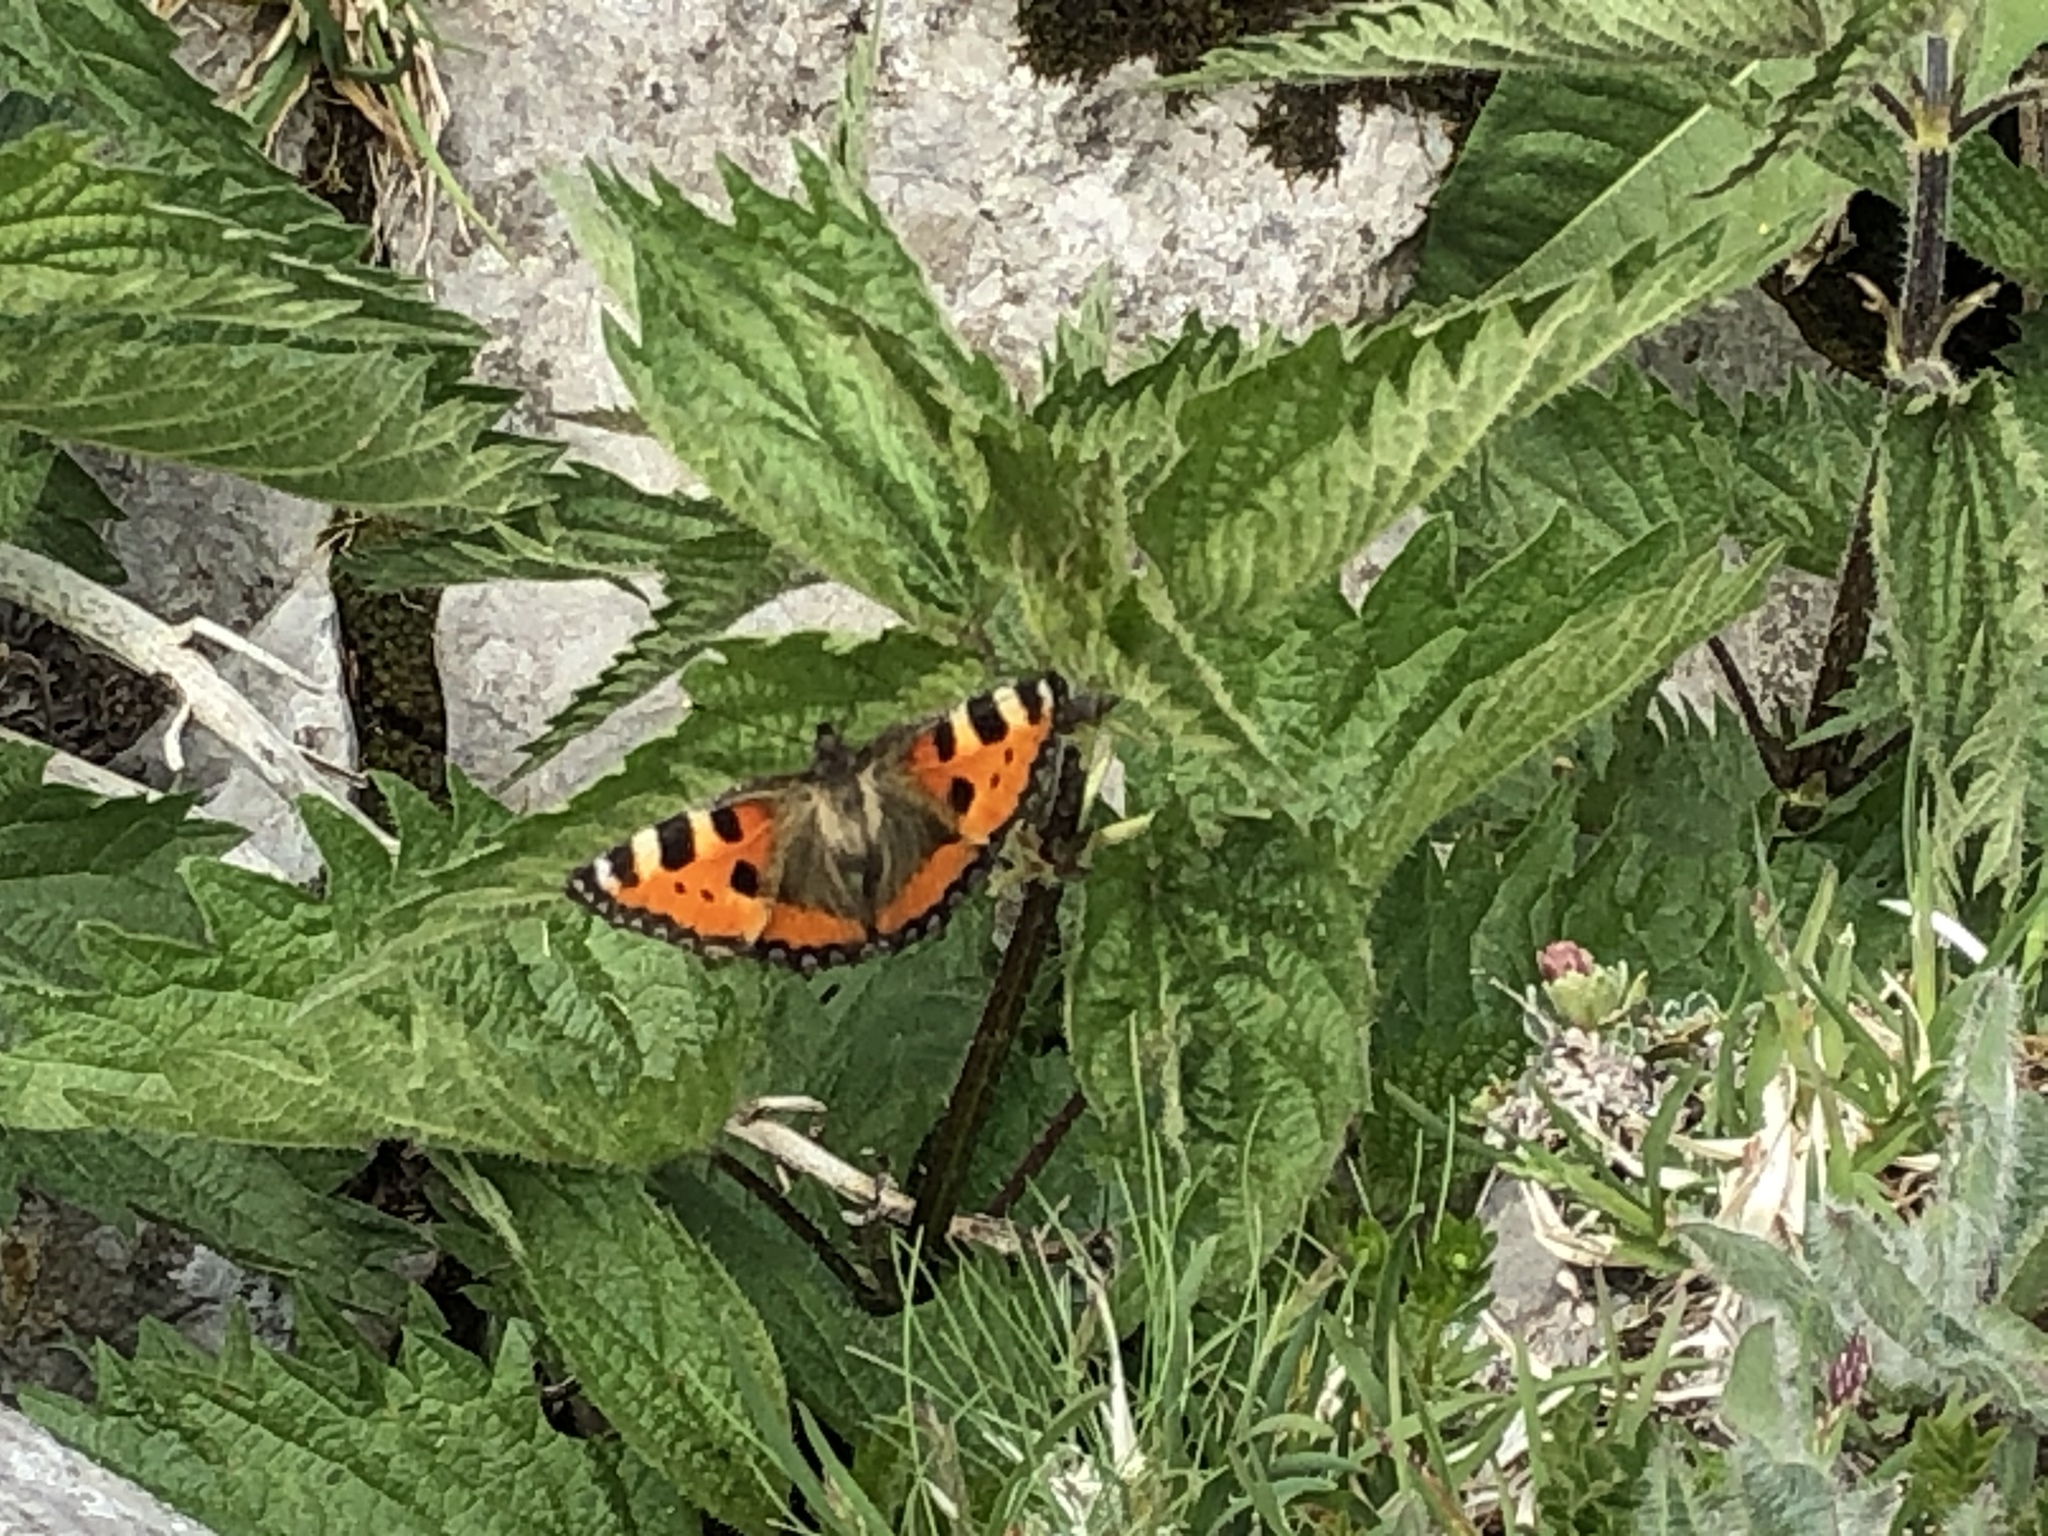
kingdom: Animalia
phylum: Arthropoda
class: Insecta
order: Lepidoptera
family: Nymphalidae
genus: Aglais
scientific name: Aglais urticae
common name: Small tortoiseshell
